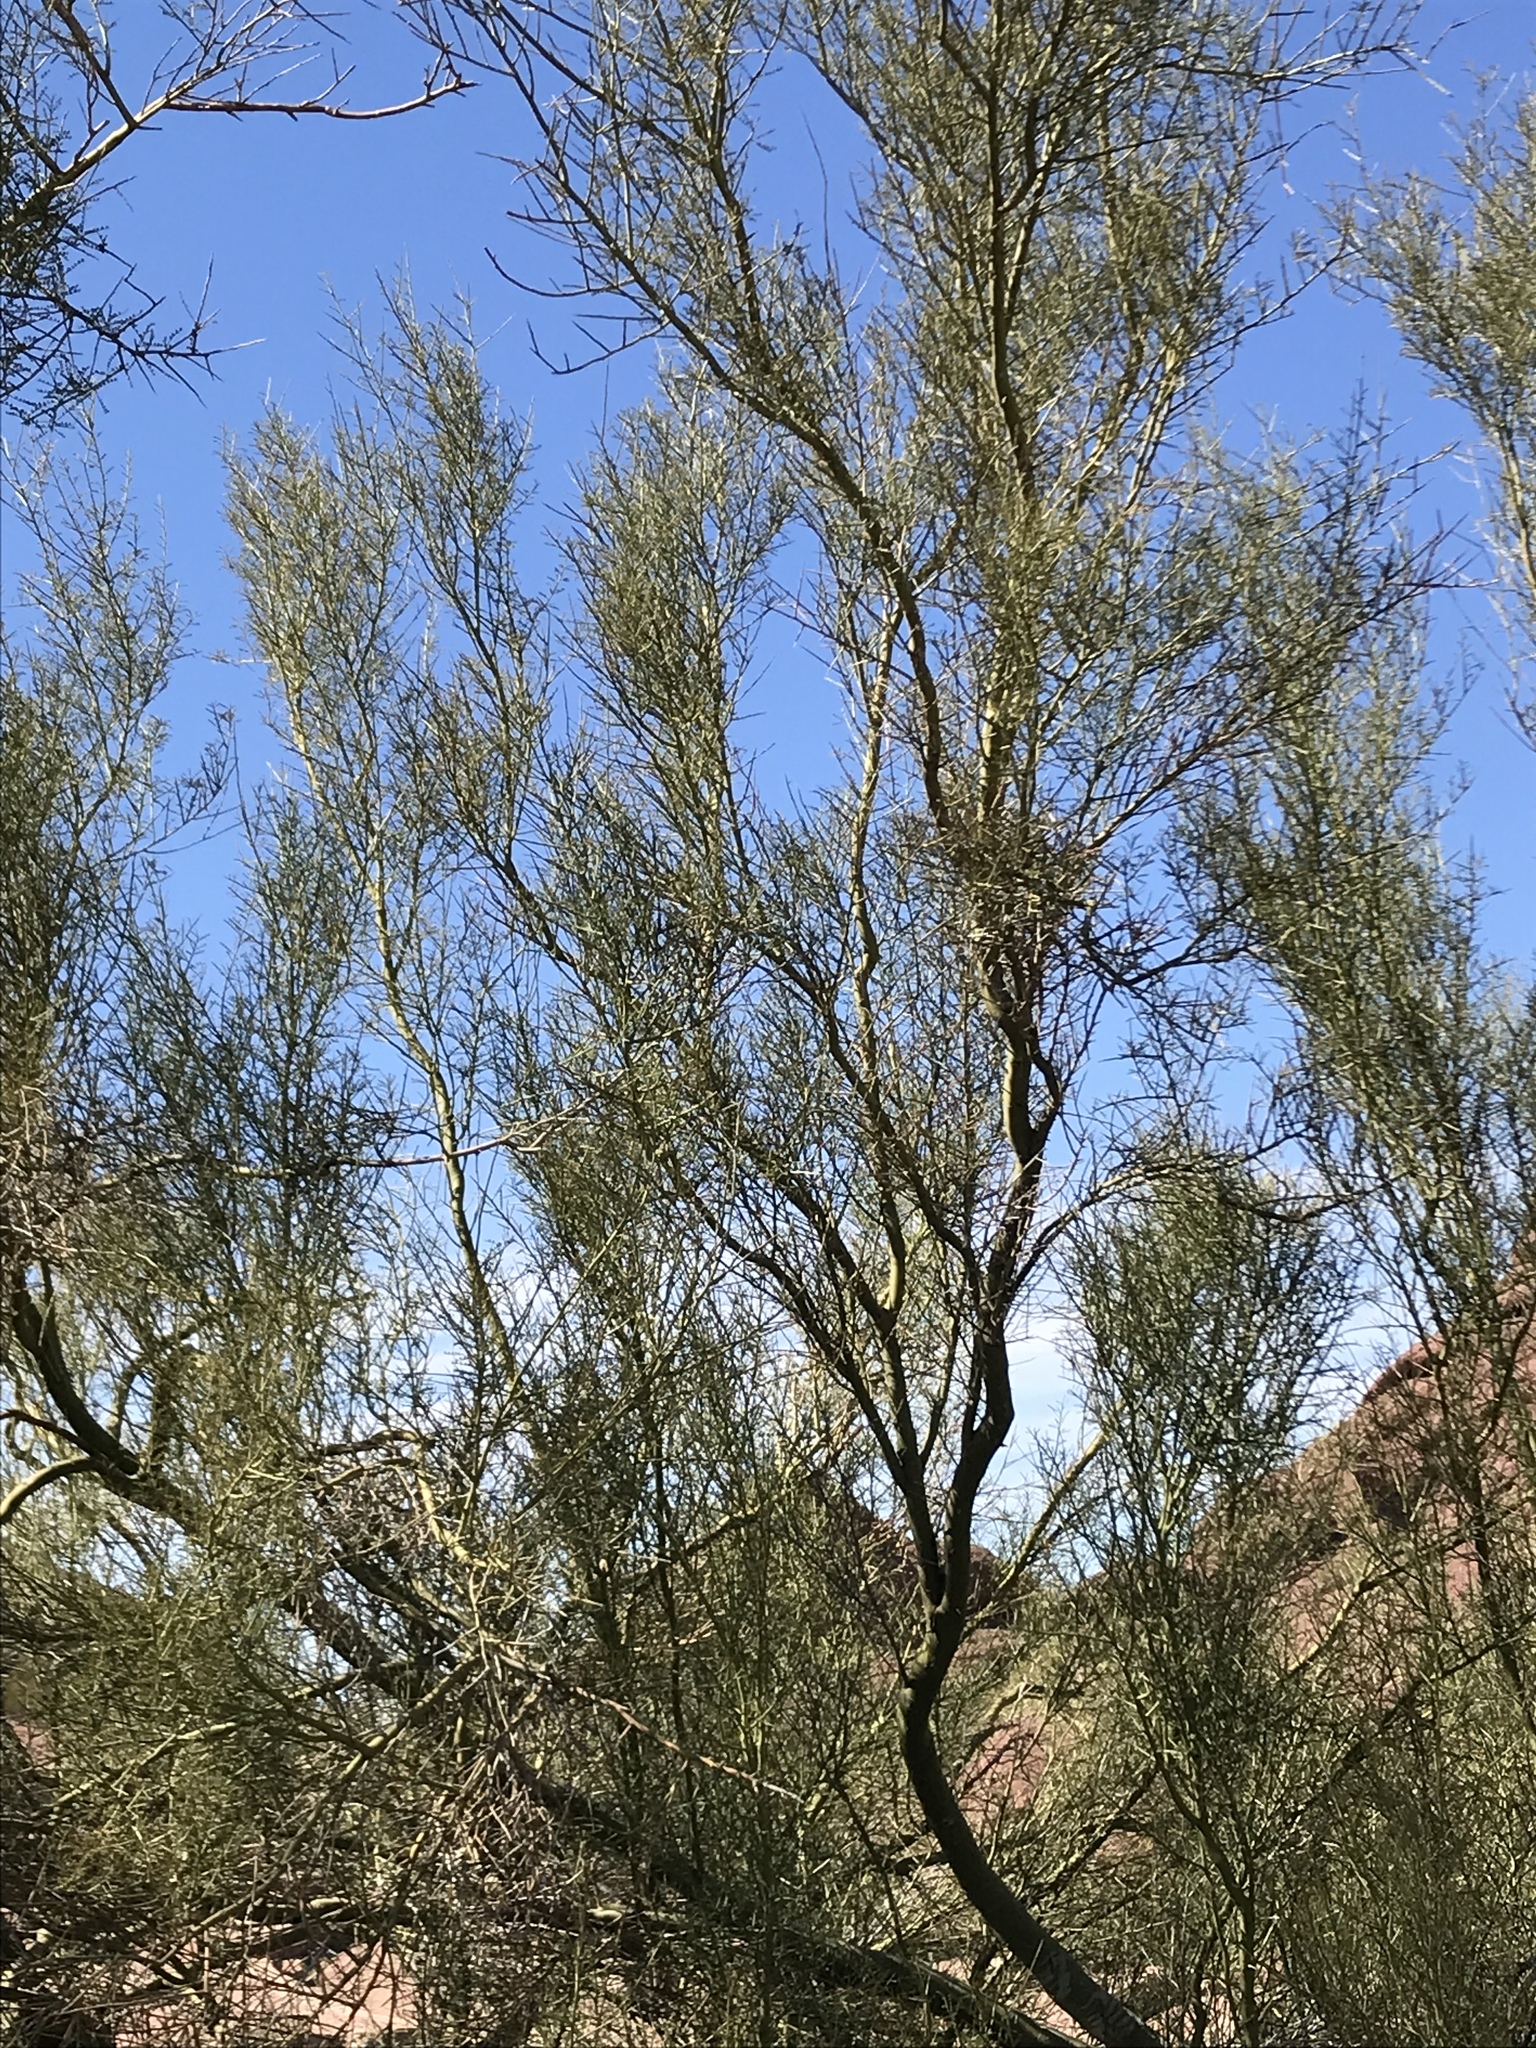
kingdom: Plantae
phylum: Tracheophyta
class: Magnoliopsida
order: Fabales
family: Fabaceae
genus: Parkinsonia
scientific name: Parkinsonia microphylla
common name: Yellow paloverde
